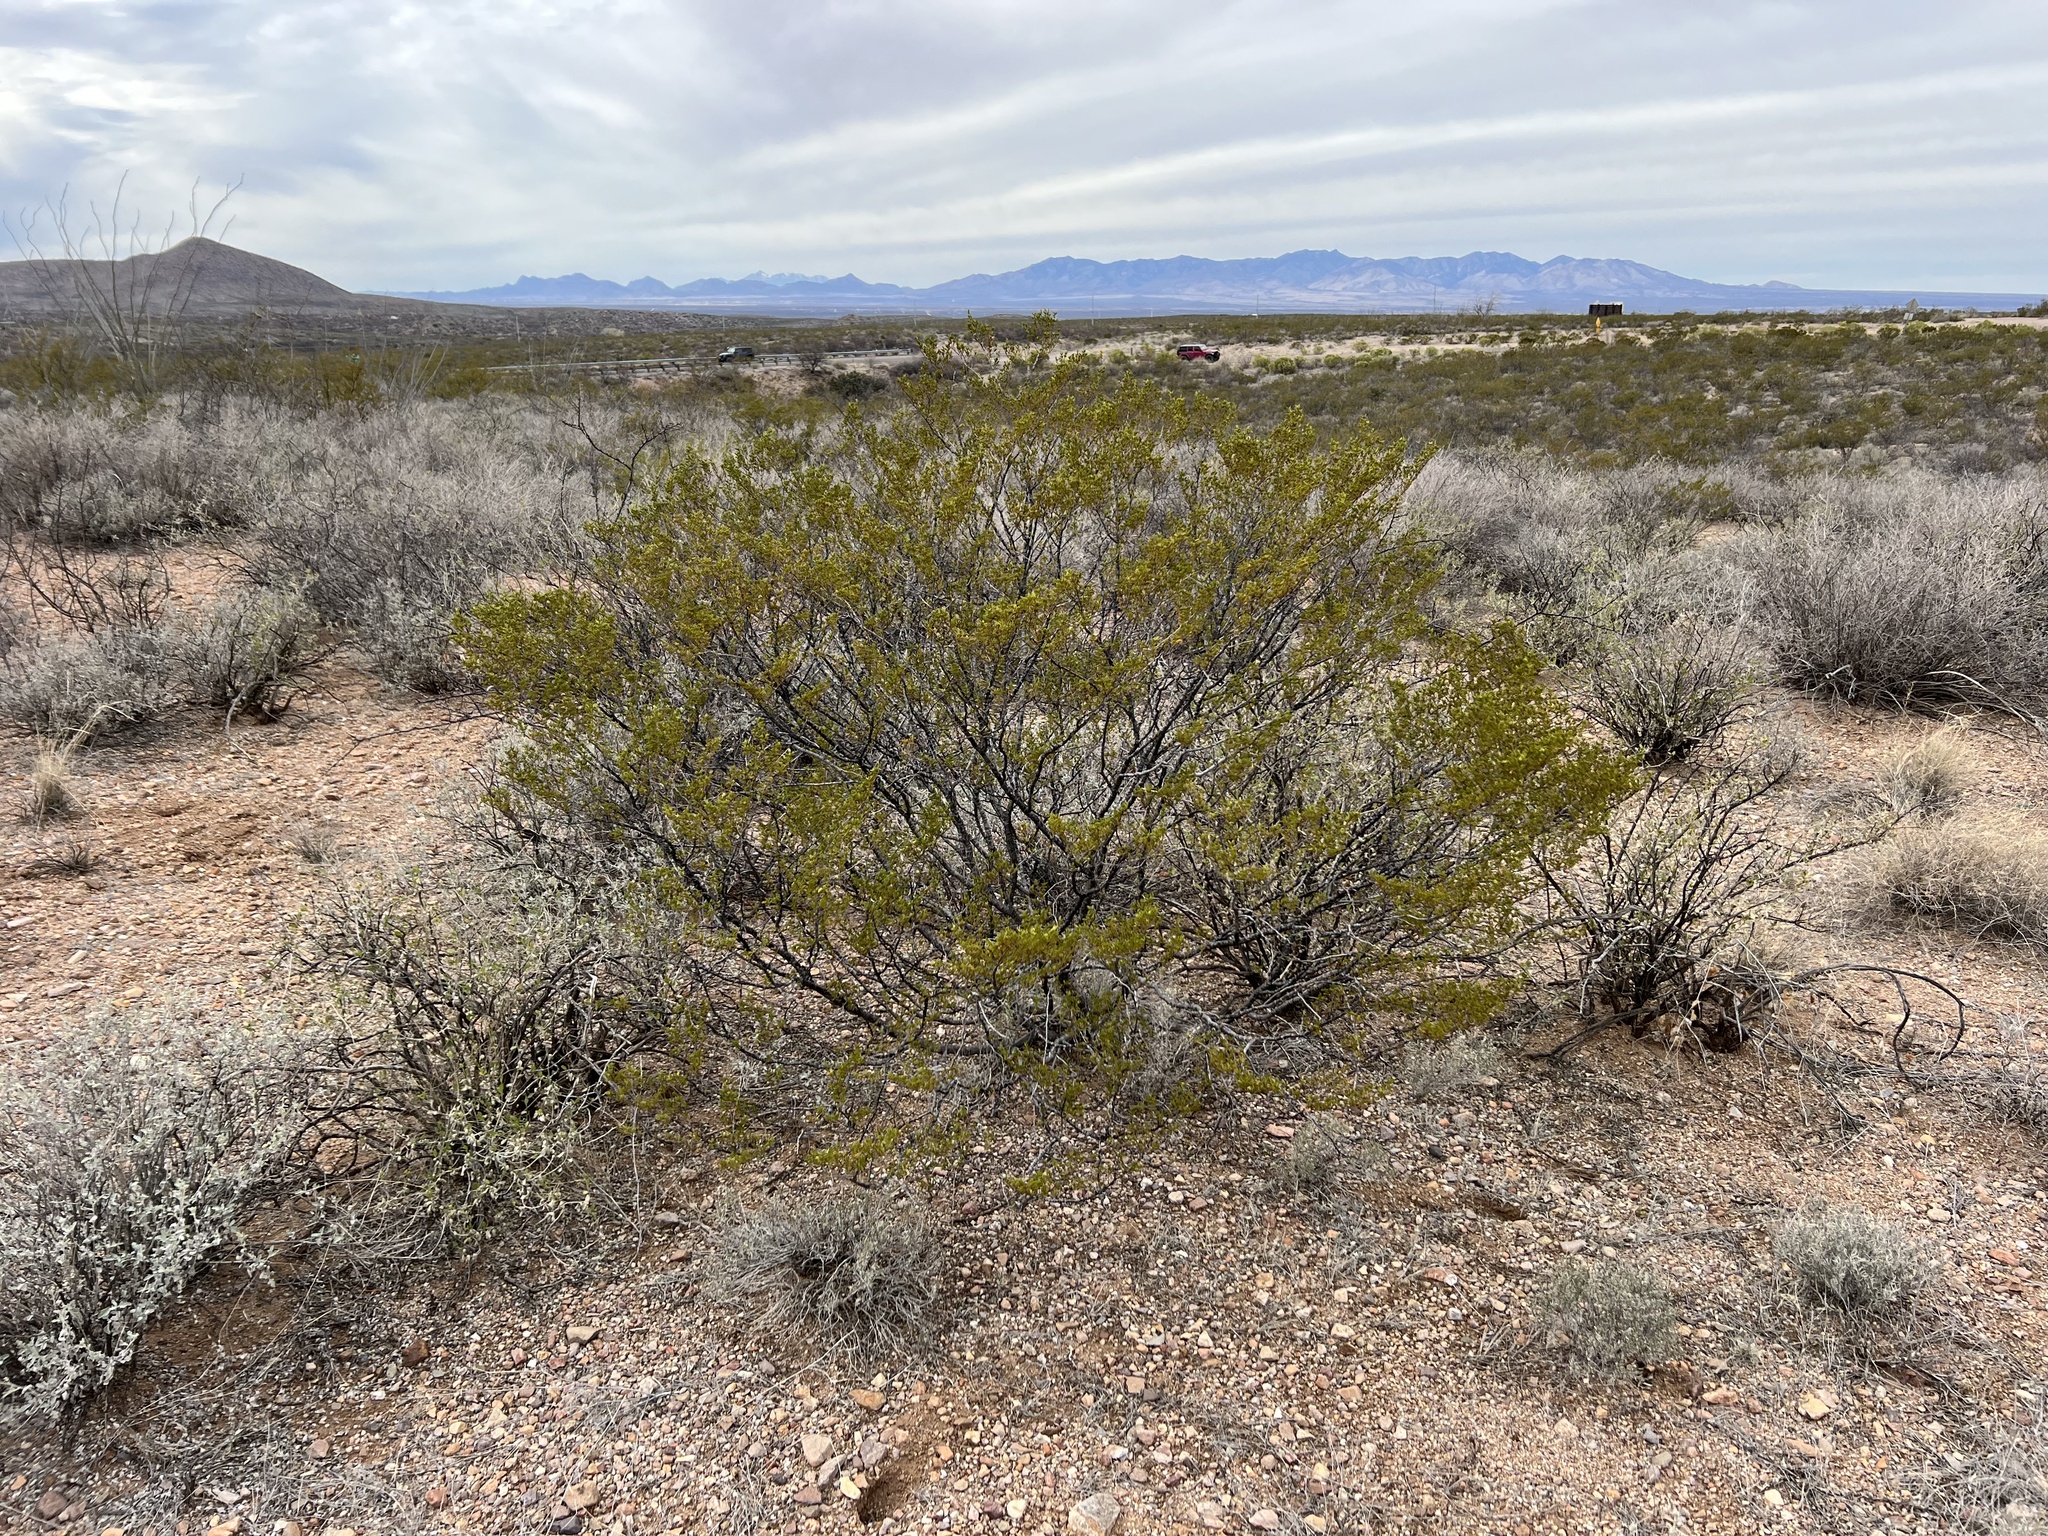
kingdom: Plantae
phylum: Tracheophyta
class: Magnoliopsida
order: Zygophyllales
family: Zygophyllaceae
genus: Larrea
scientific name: Larrea tridentata
